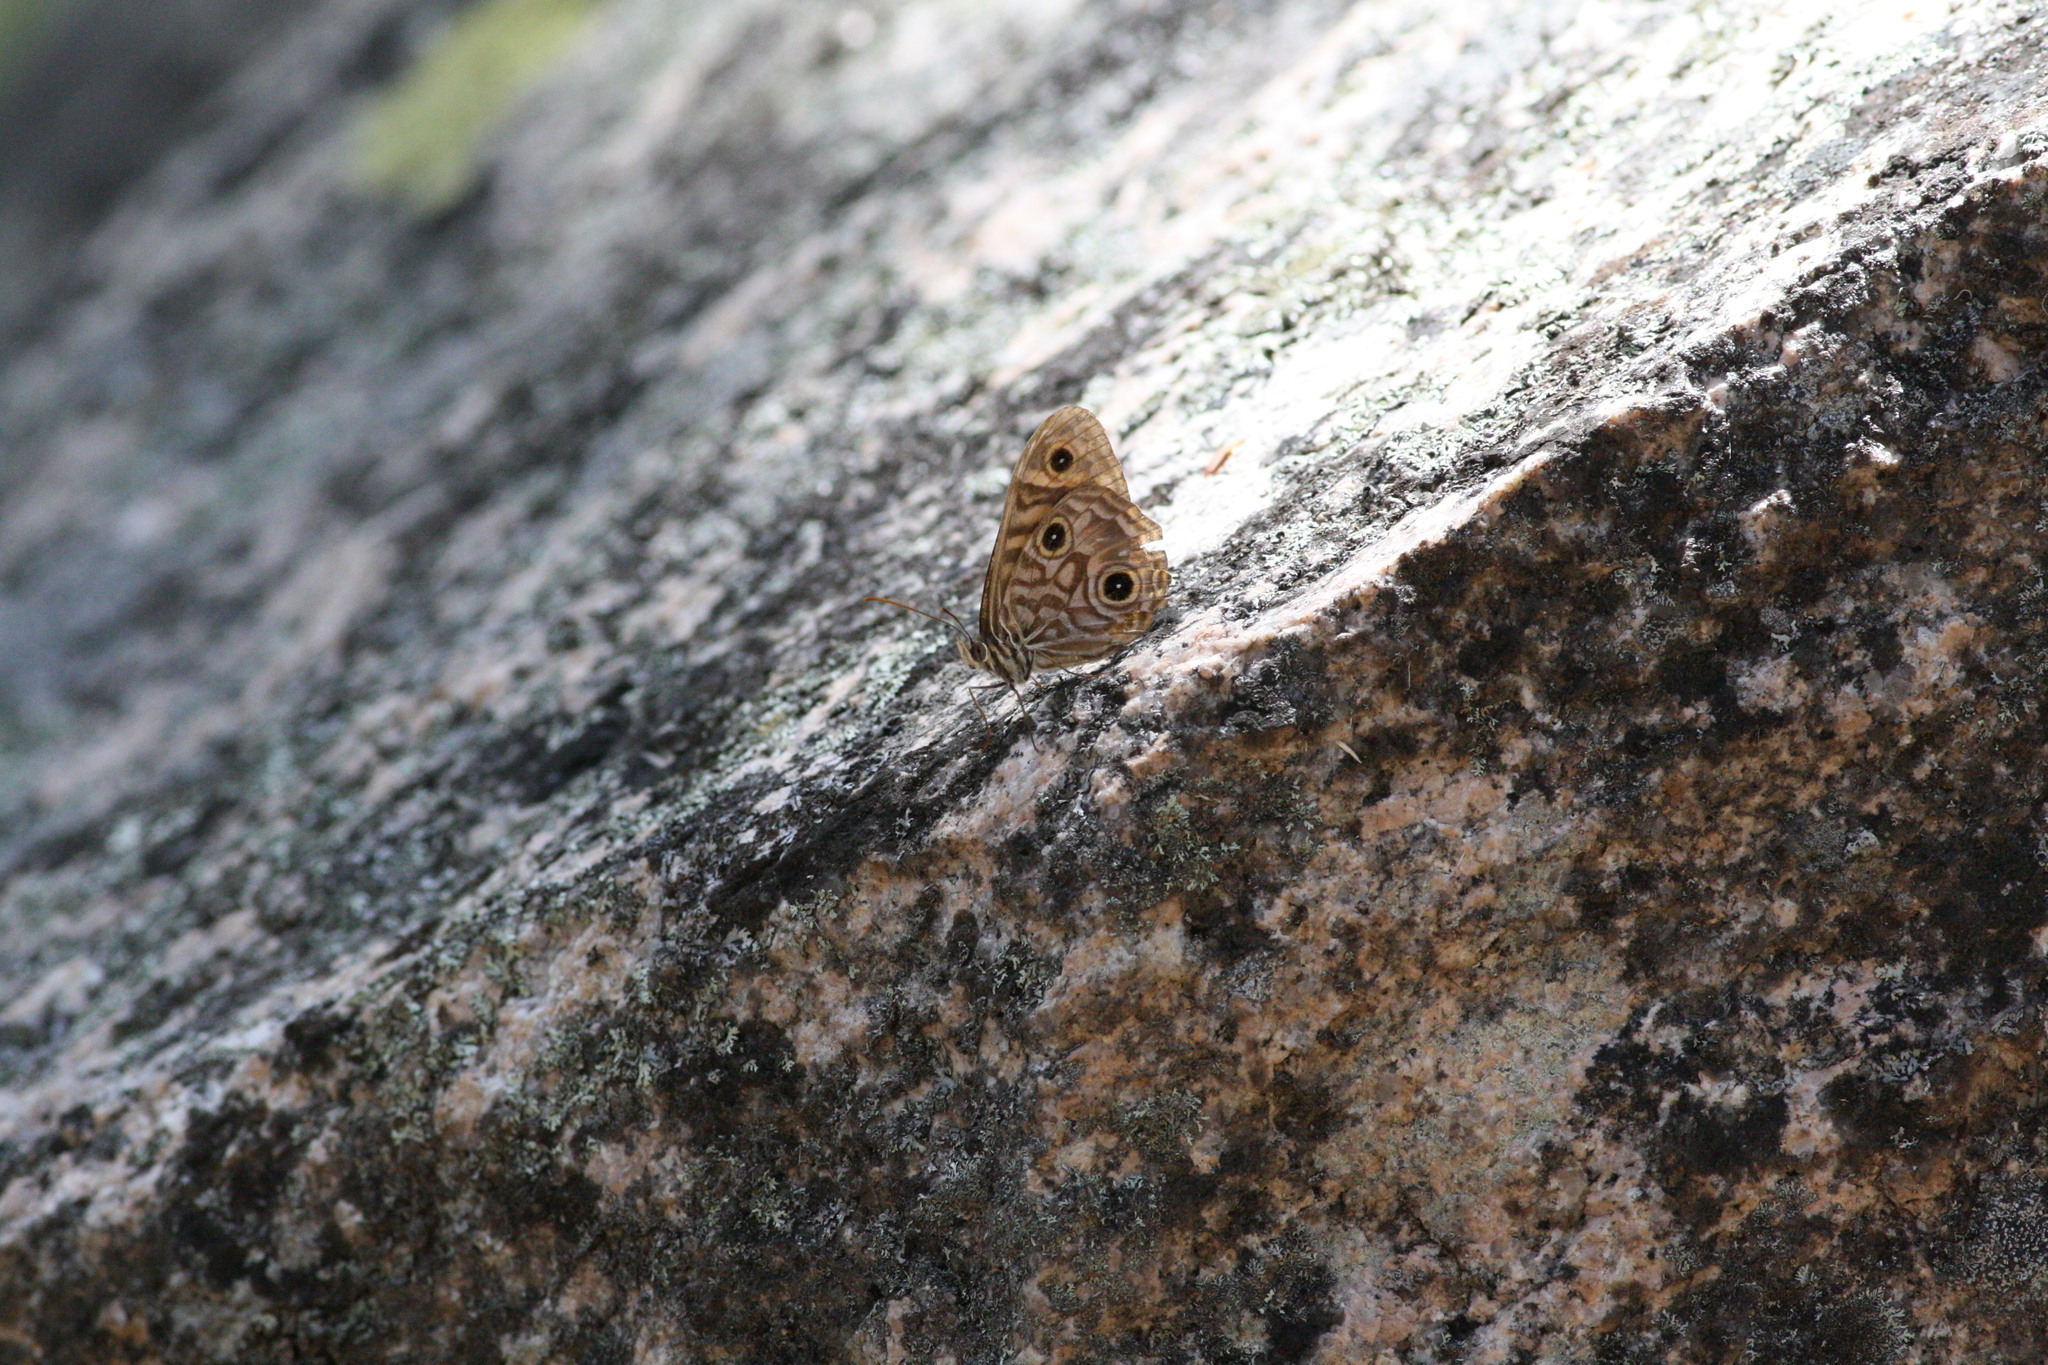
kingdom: Animalia
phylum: Arthropoda
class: Insecta
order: Lepidoptera
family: Nymphalidae
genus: Geitoneura
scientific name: Geitoneura acantha
